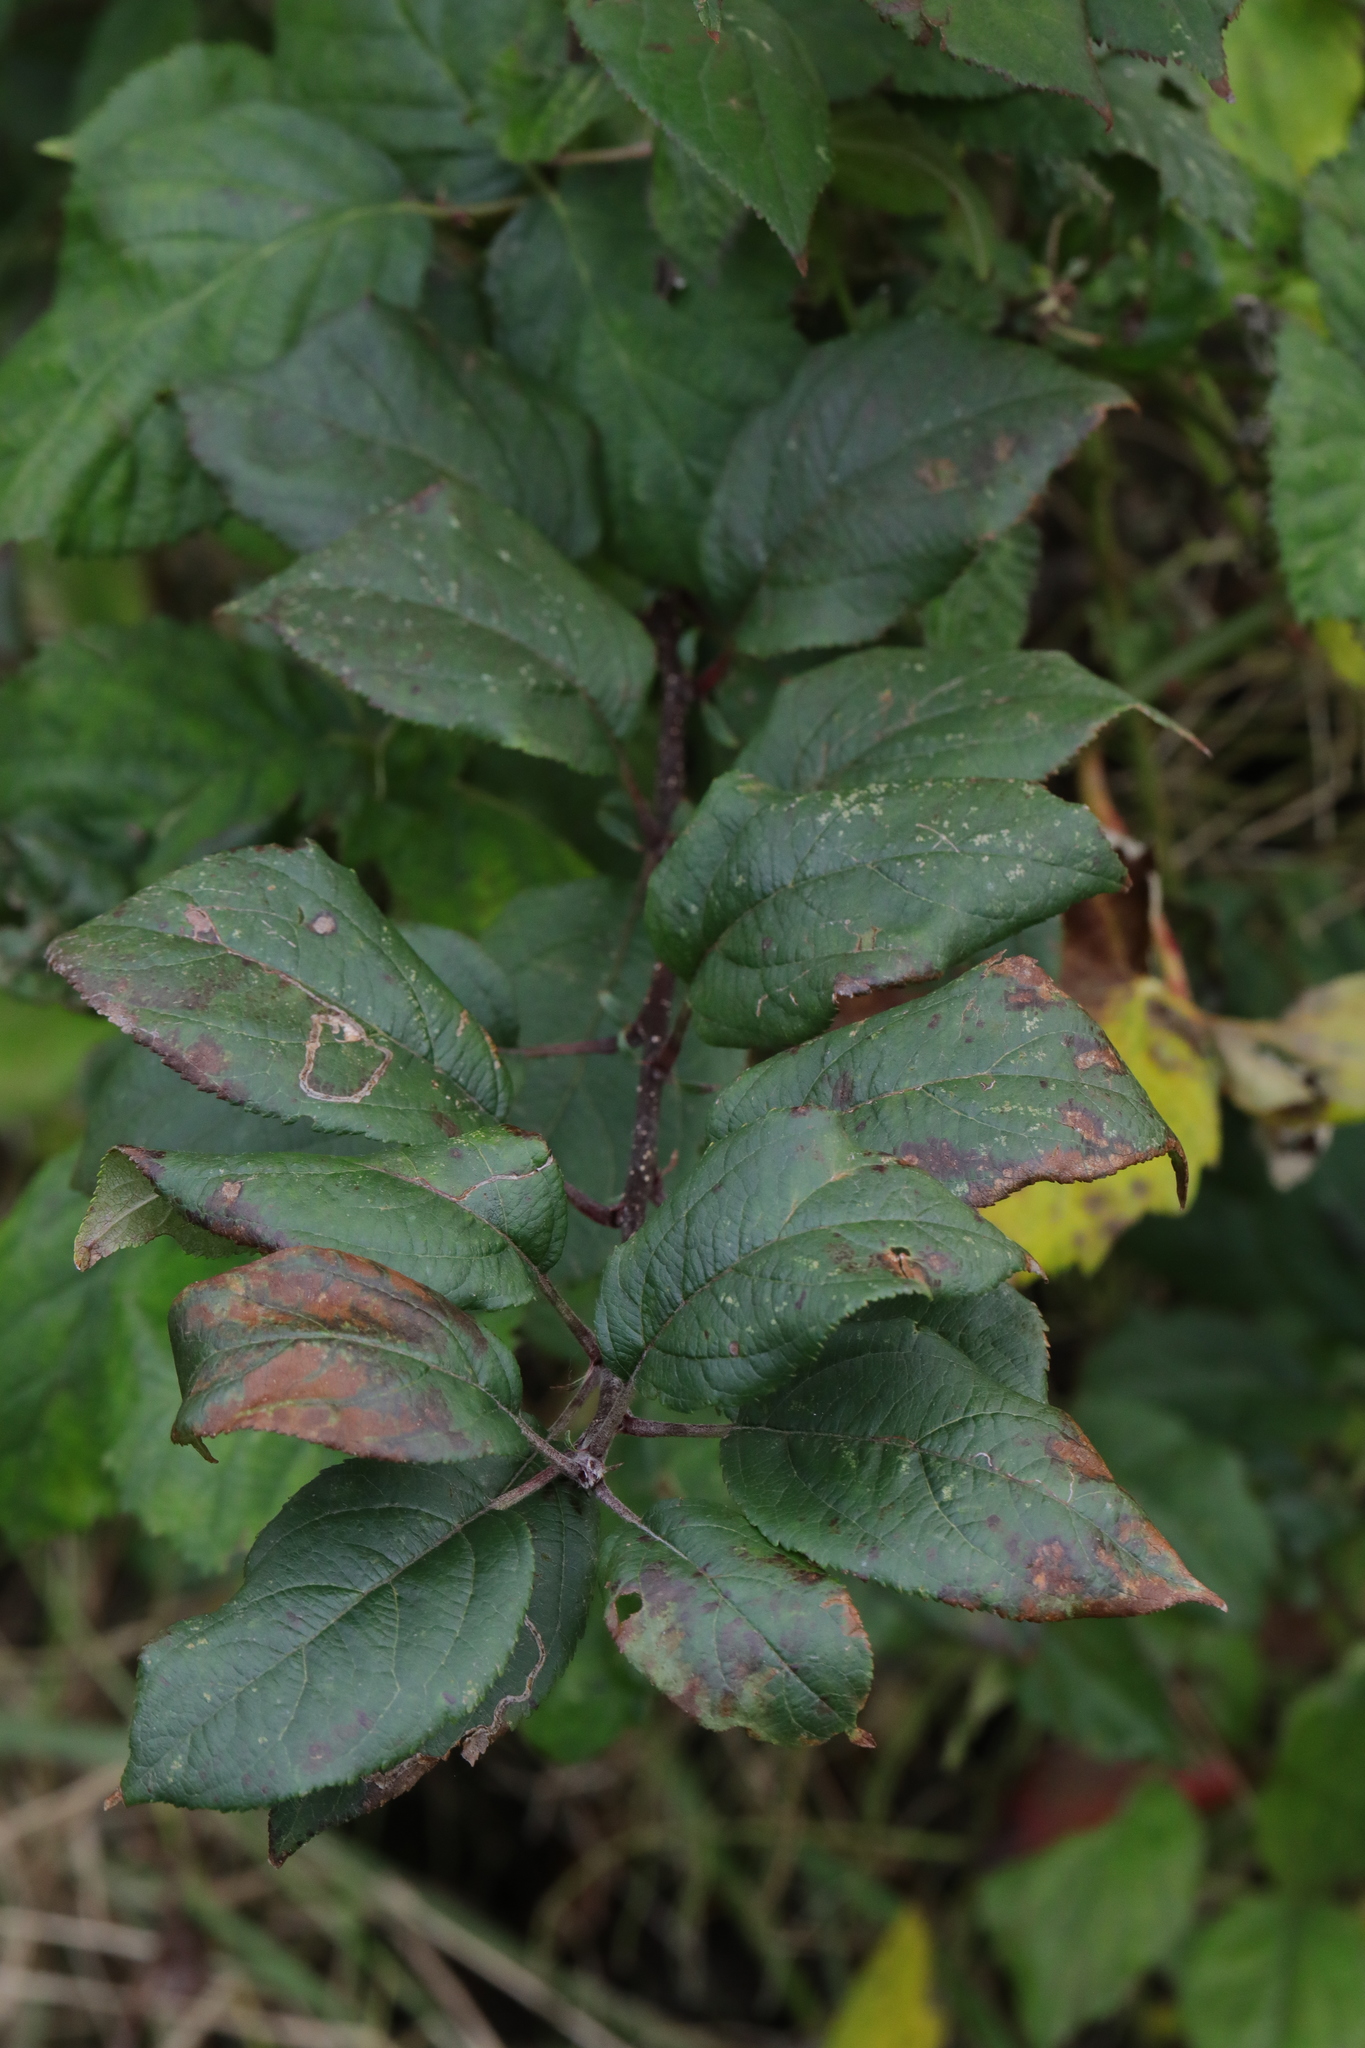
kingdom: Plantae
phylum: Tracheophyta
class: Magnoliopsida
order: Rosales
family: Rosaceae
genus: Malus
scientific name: Malus domestica
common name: Apple
